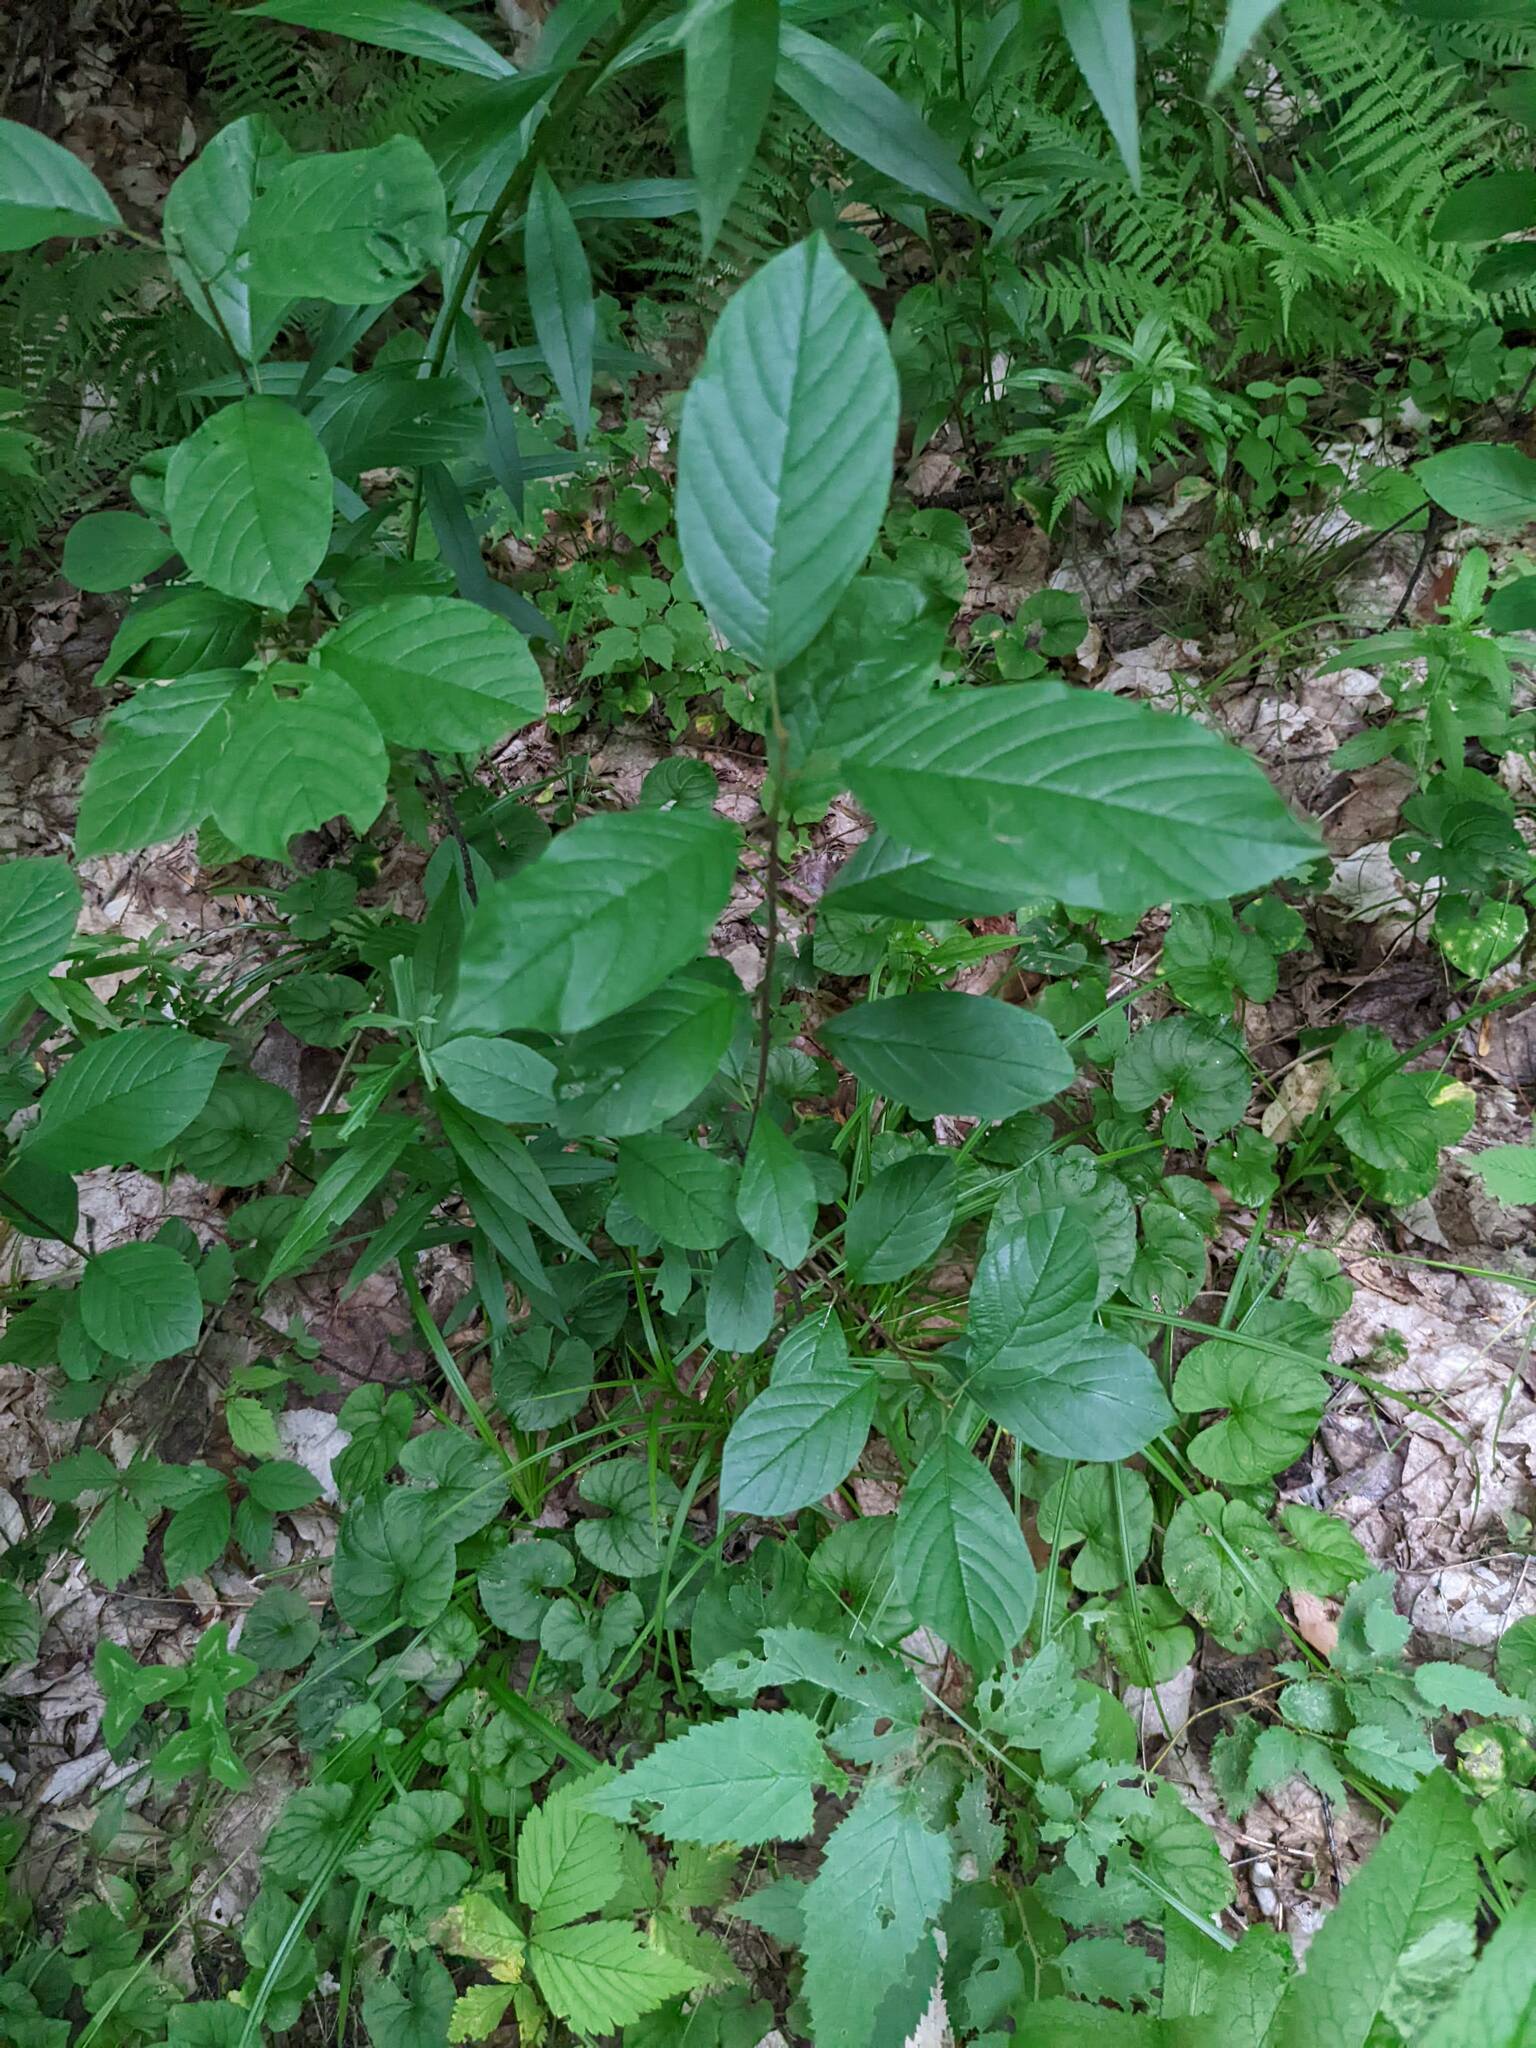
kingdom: Plantae
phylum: Tracheophyta
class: Magnoliopsida
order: Rosales
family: Rhamnaceae
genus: Frangula
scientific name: Frangula alnus
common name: Alder buckthorn
